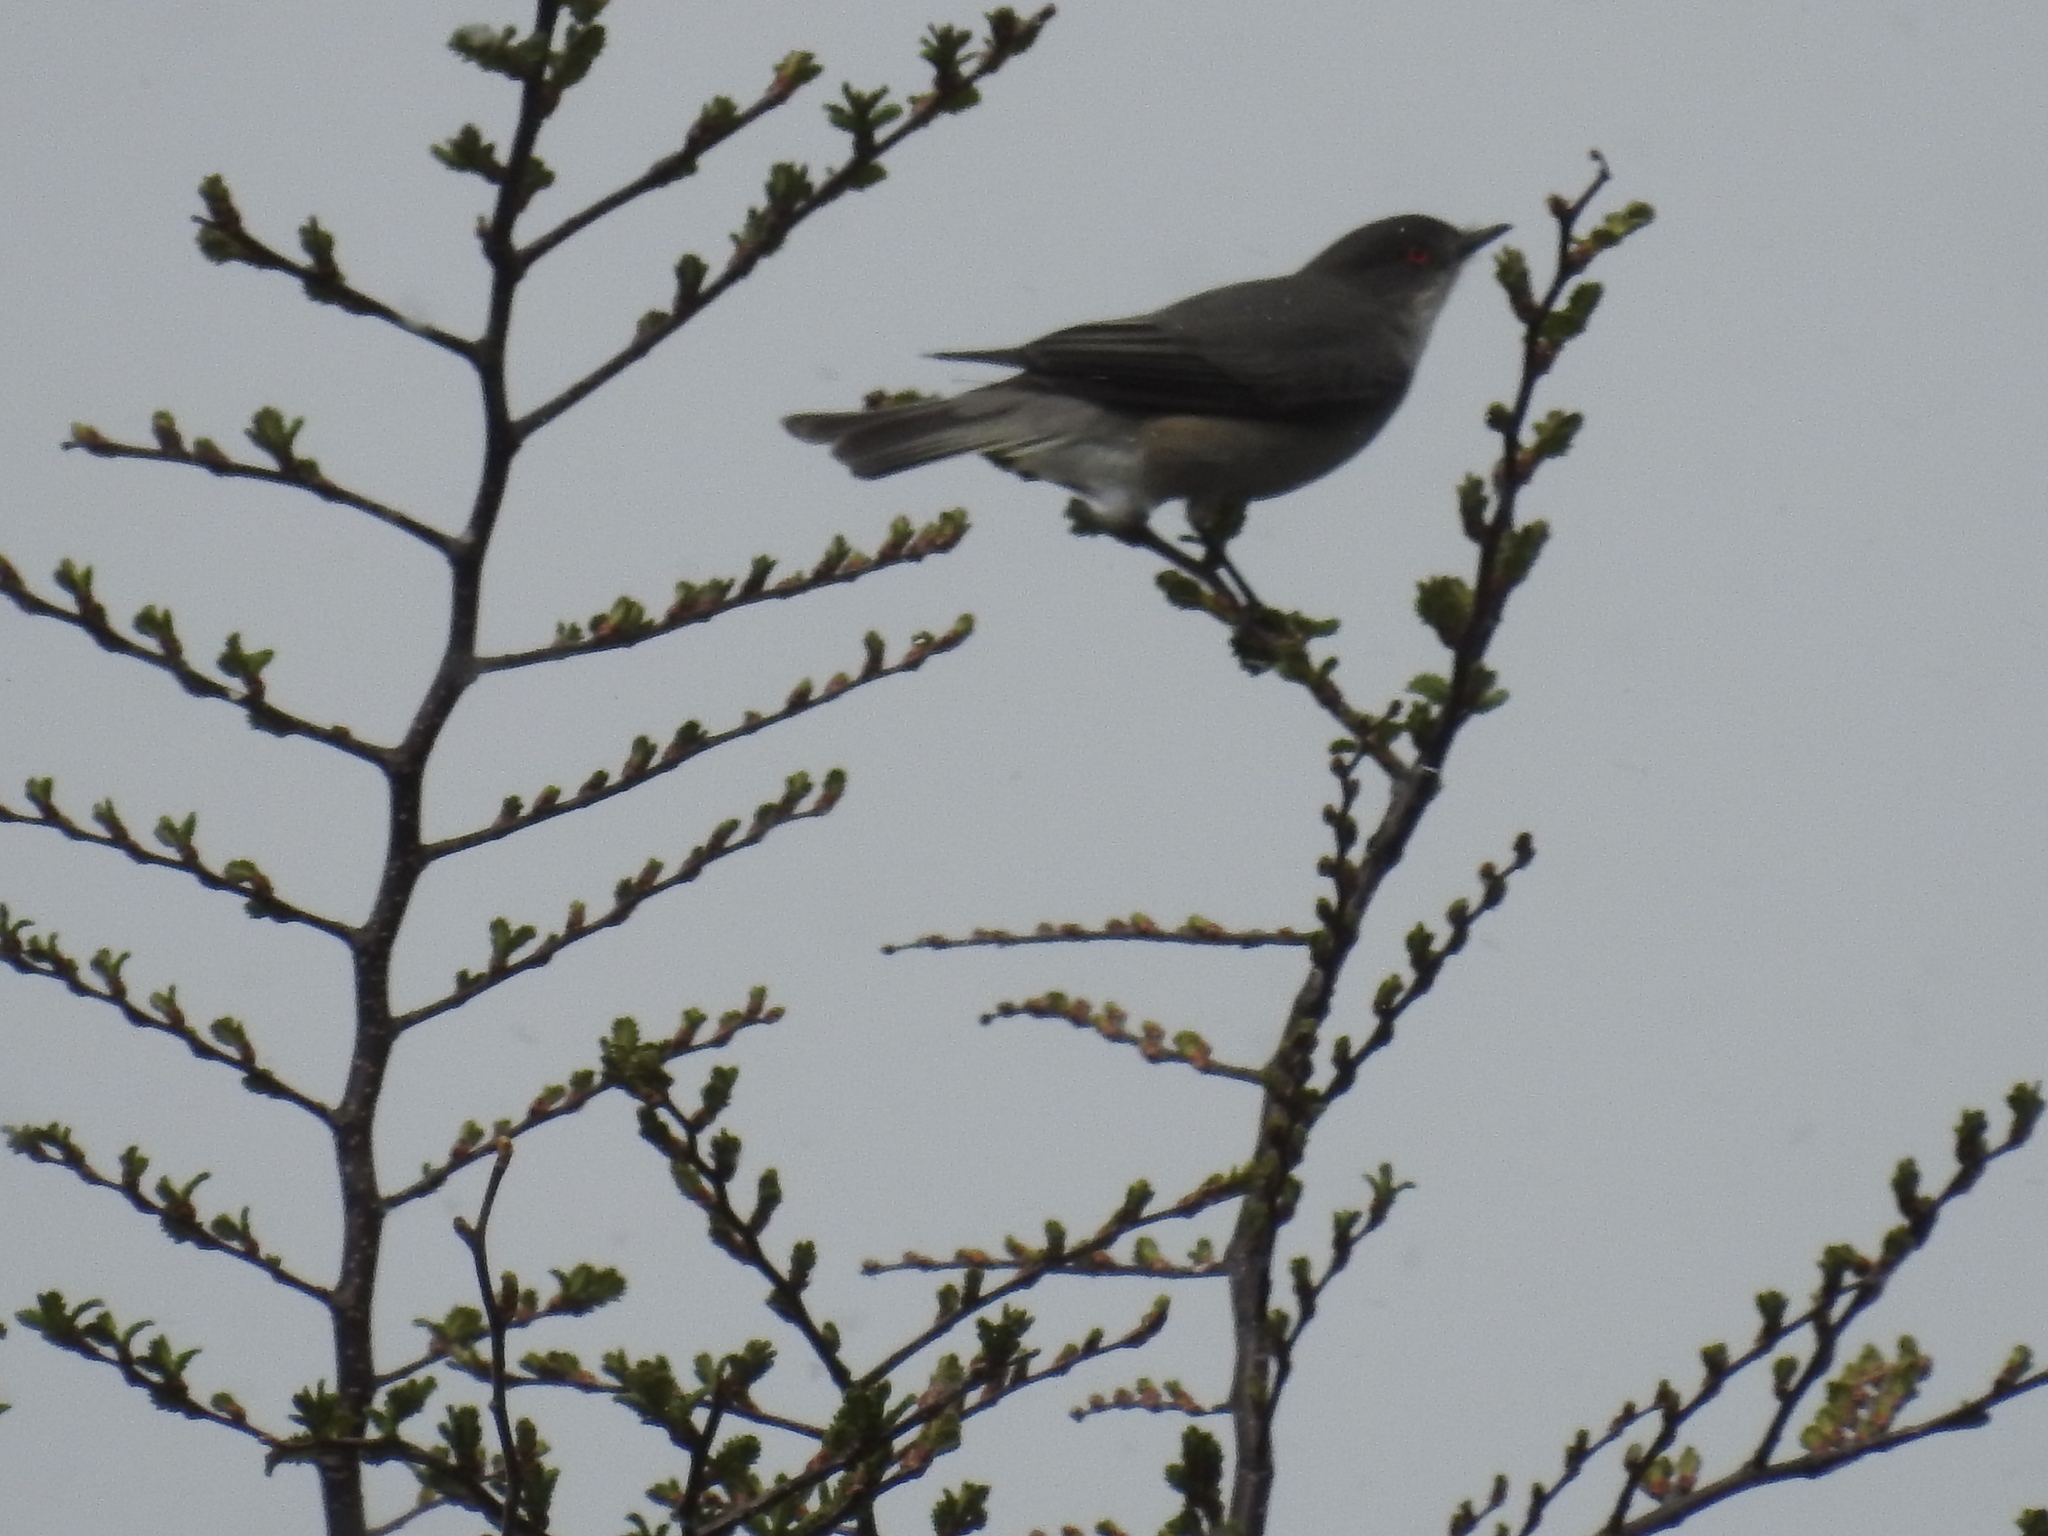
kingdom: Animalia
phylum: Chordata
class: Aves
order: Passeriformes
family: Tyrannidae
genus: Xolmis
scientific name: Xolmis pyrope
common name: Fire-eyed diucon
